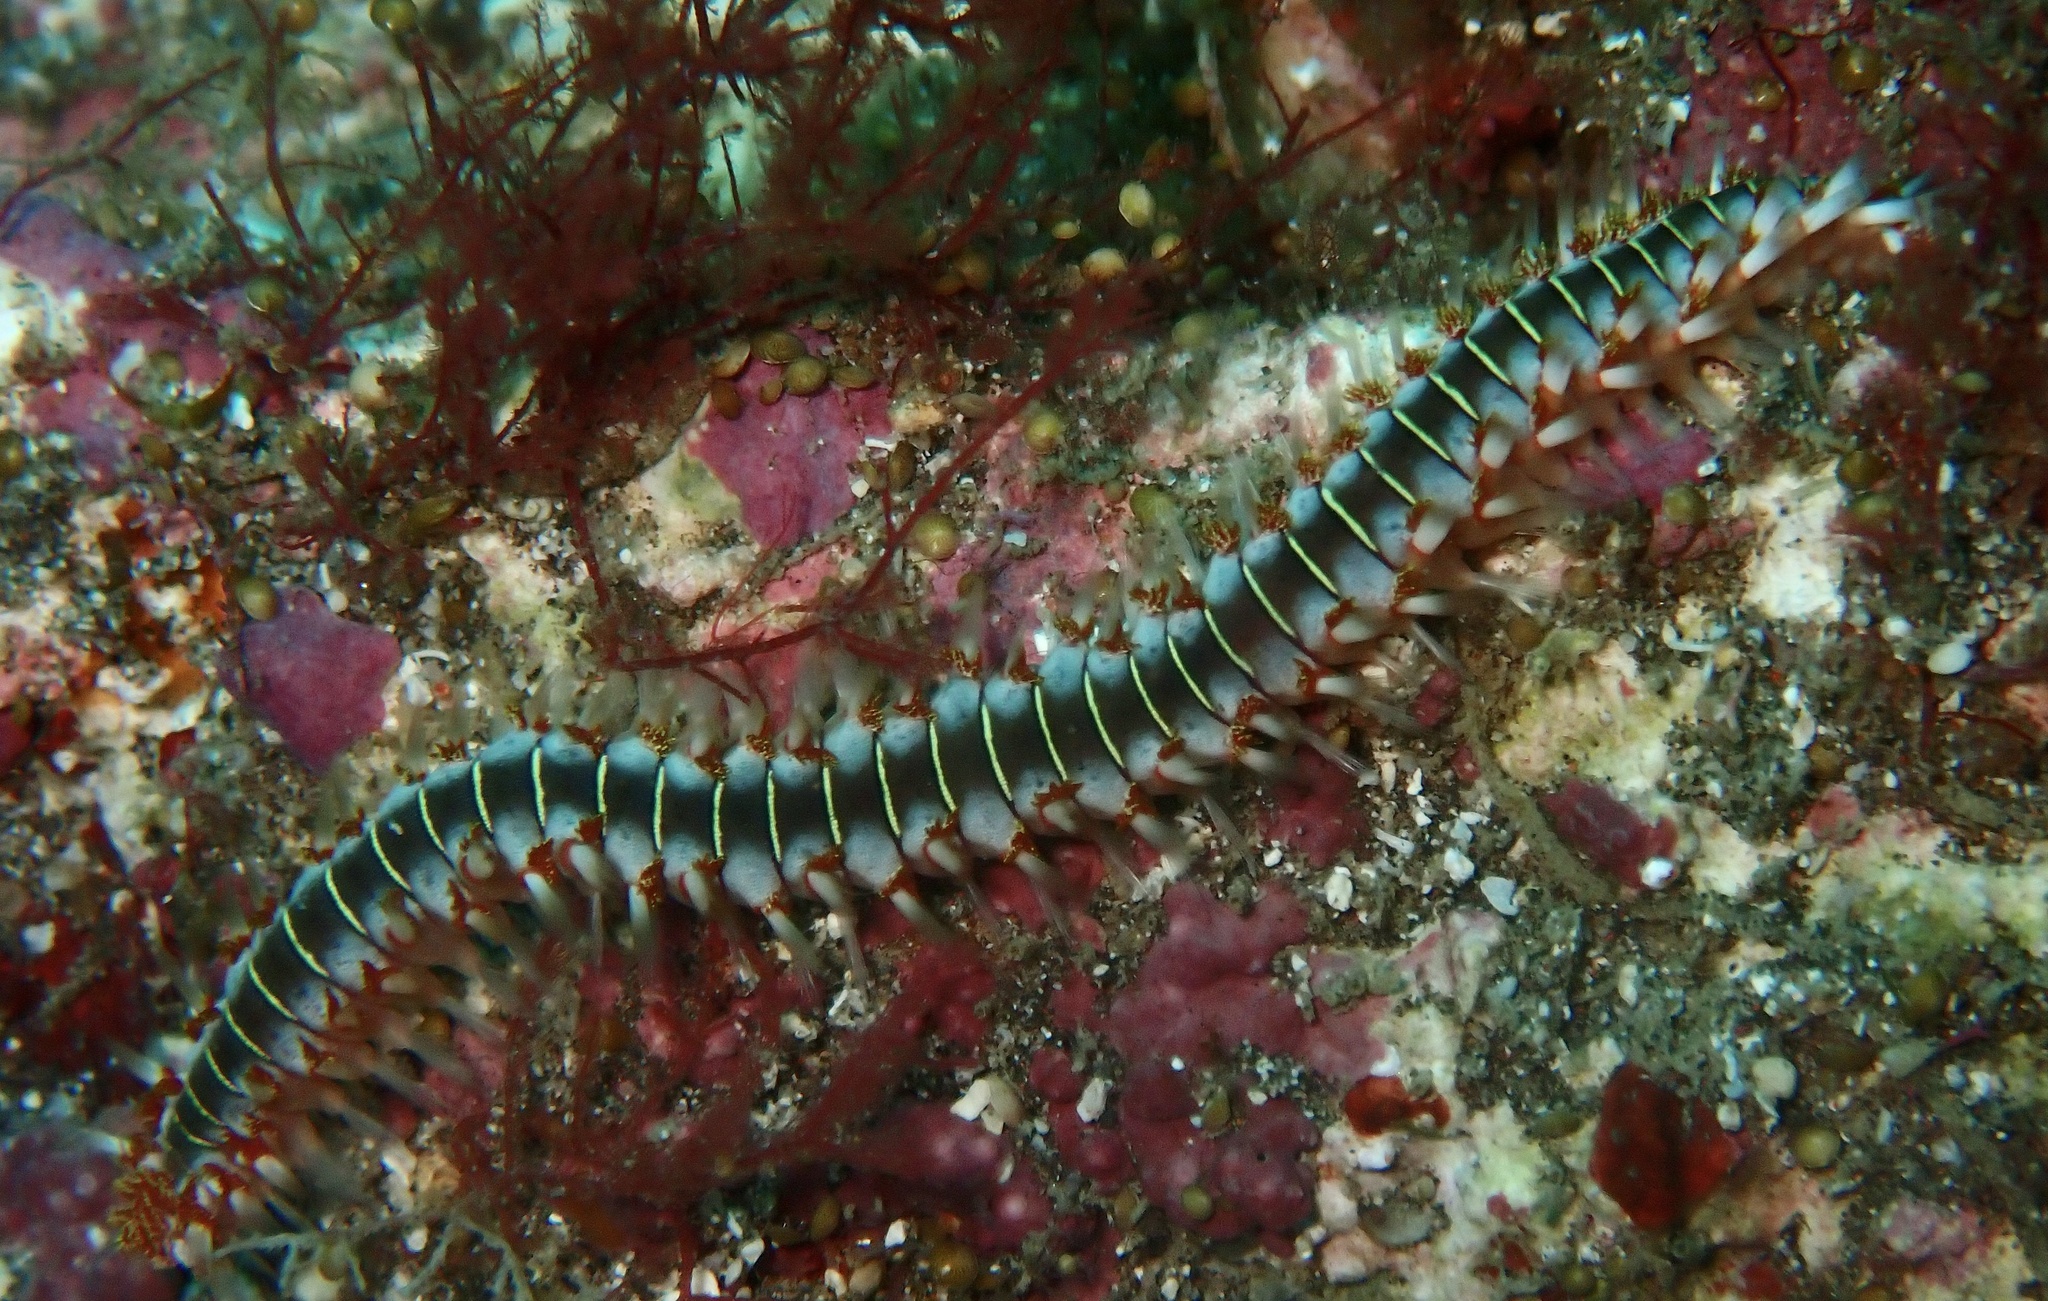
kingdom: Animalia
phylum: Annelida
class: Polychaeta
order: Amphinomida
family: Amphinomidae
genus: Hermodice
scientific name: Hermodice carunculata
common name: Bearded fireworm
